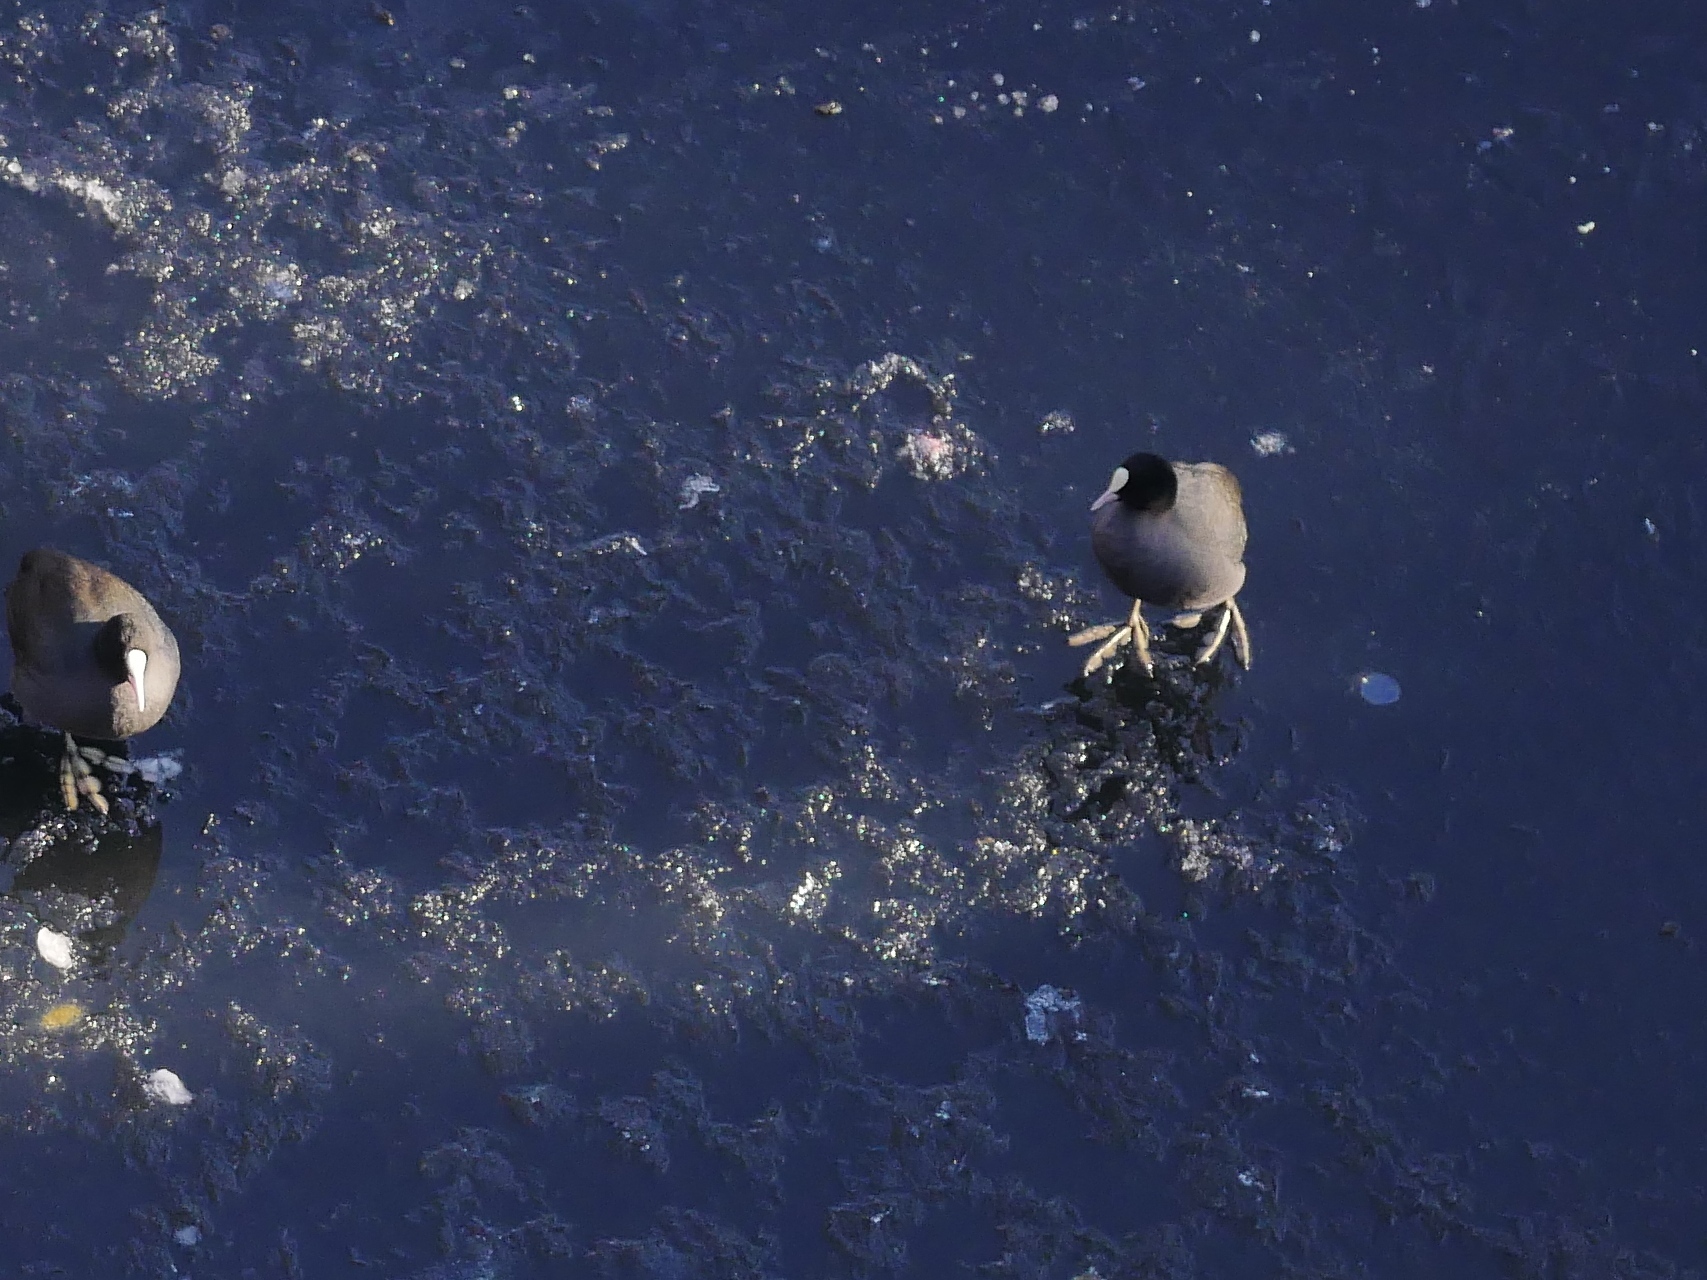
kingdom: Animalia
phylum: Chordata
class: Aves
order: Gruiformes
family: Rallidae
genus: Fulica
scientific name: Fulica atra
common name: Eurasian coot
